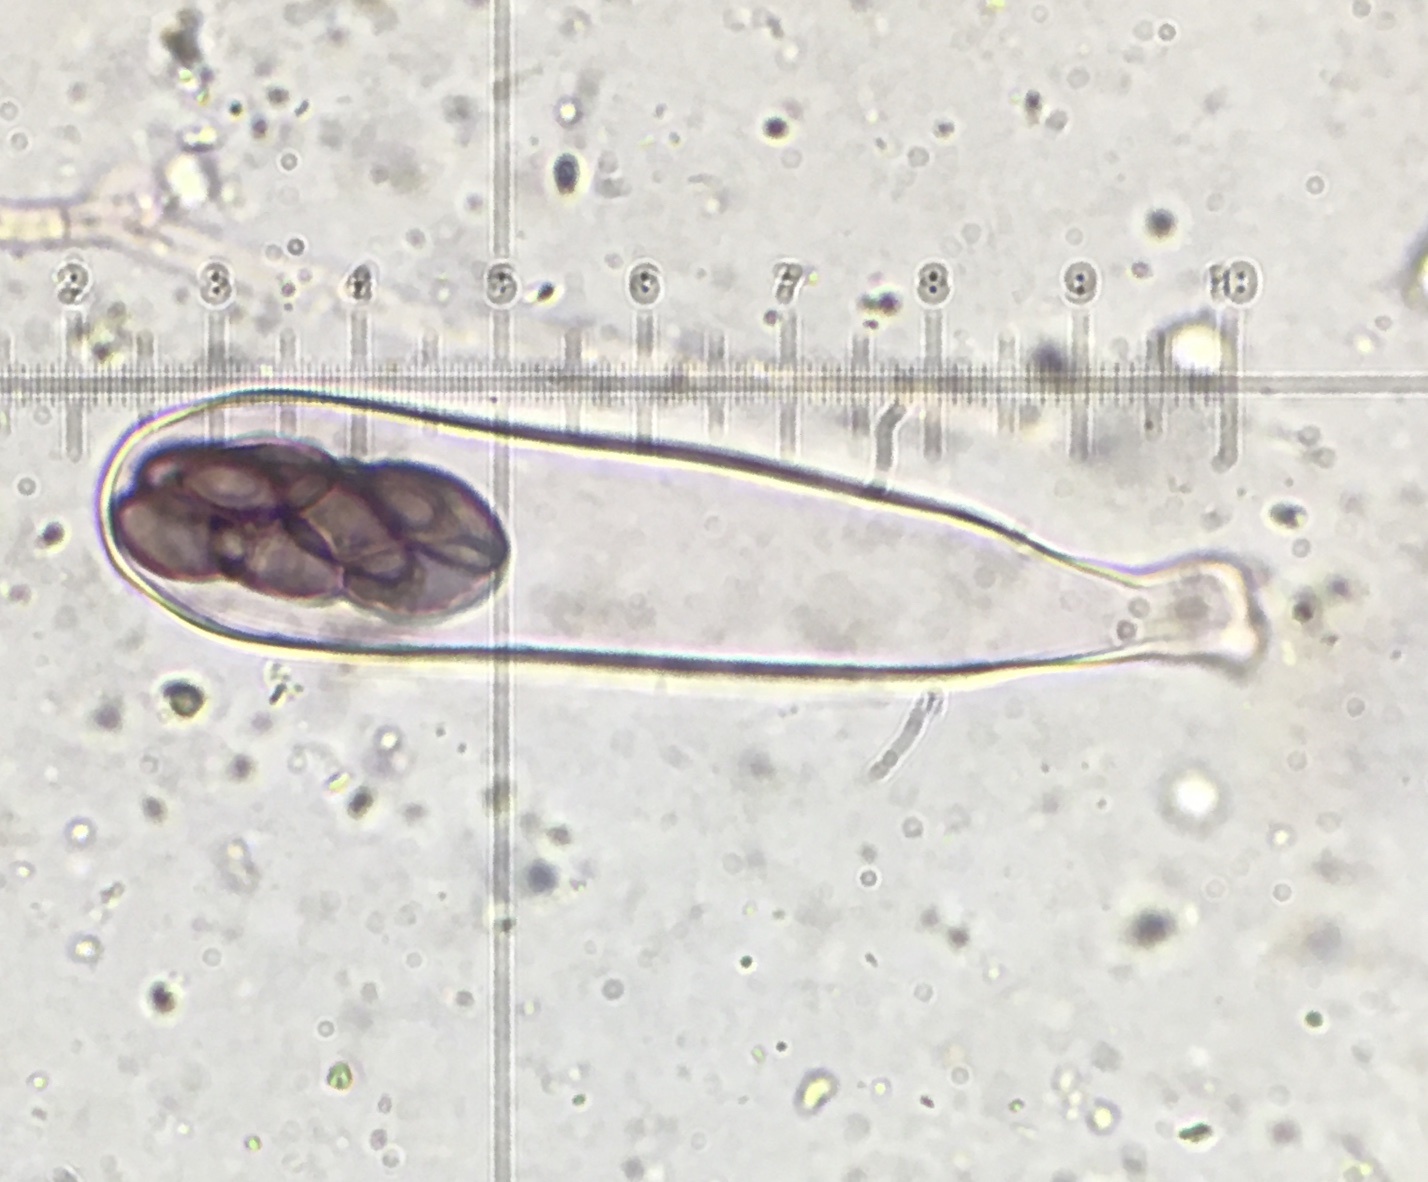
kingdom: Fungi
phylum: Ascomycota
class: Pezizomycetes
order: Pezizales
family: Ascobolaceae
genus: Saccobolus
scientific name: Saccobolus depauperatus
